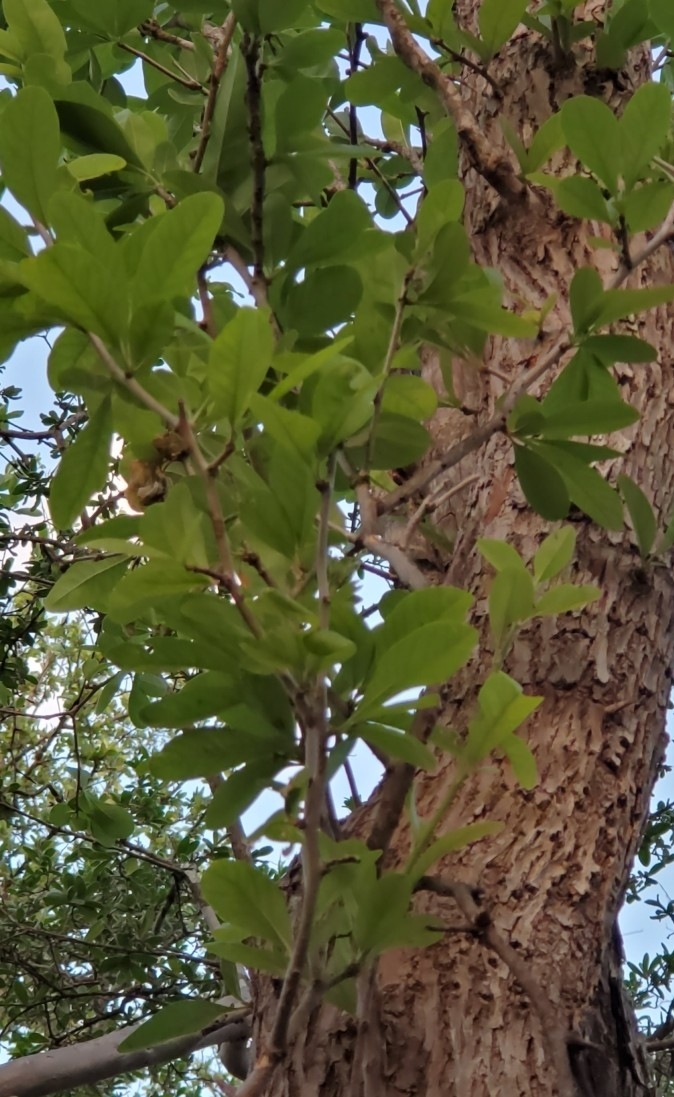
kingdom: Plantae
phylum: Tracheophyta
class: Magnoliopsida
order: Ericales
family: Sapotaceae
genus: Sideroxylon
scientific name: Sideroxylon lanuginosum
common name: Chittamwood
